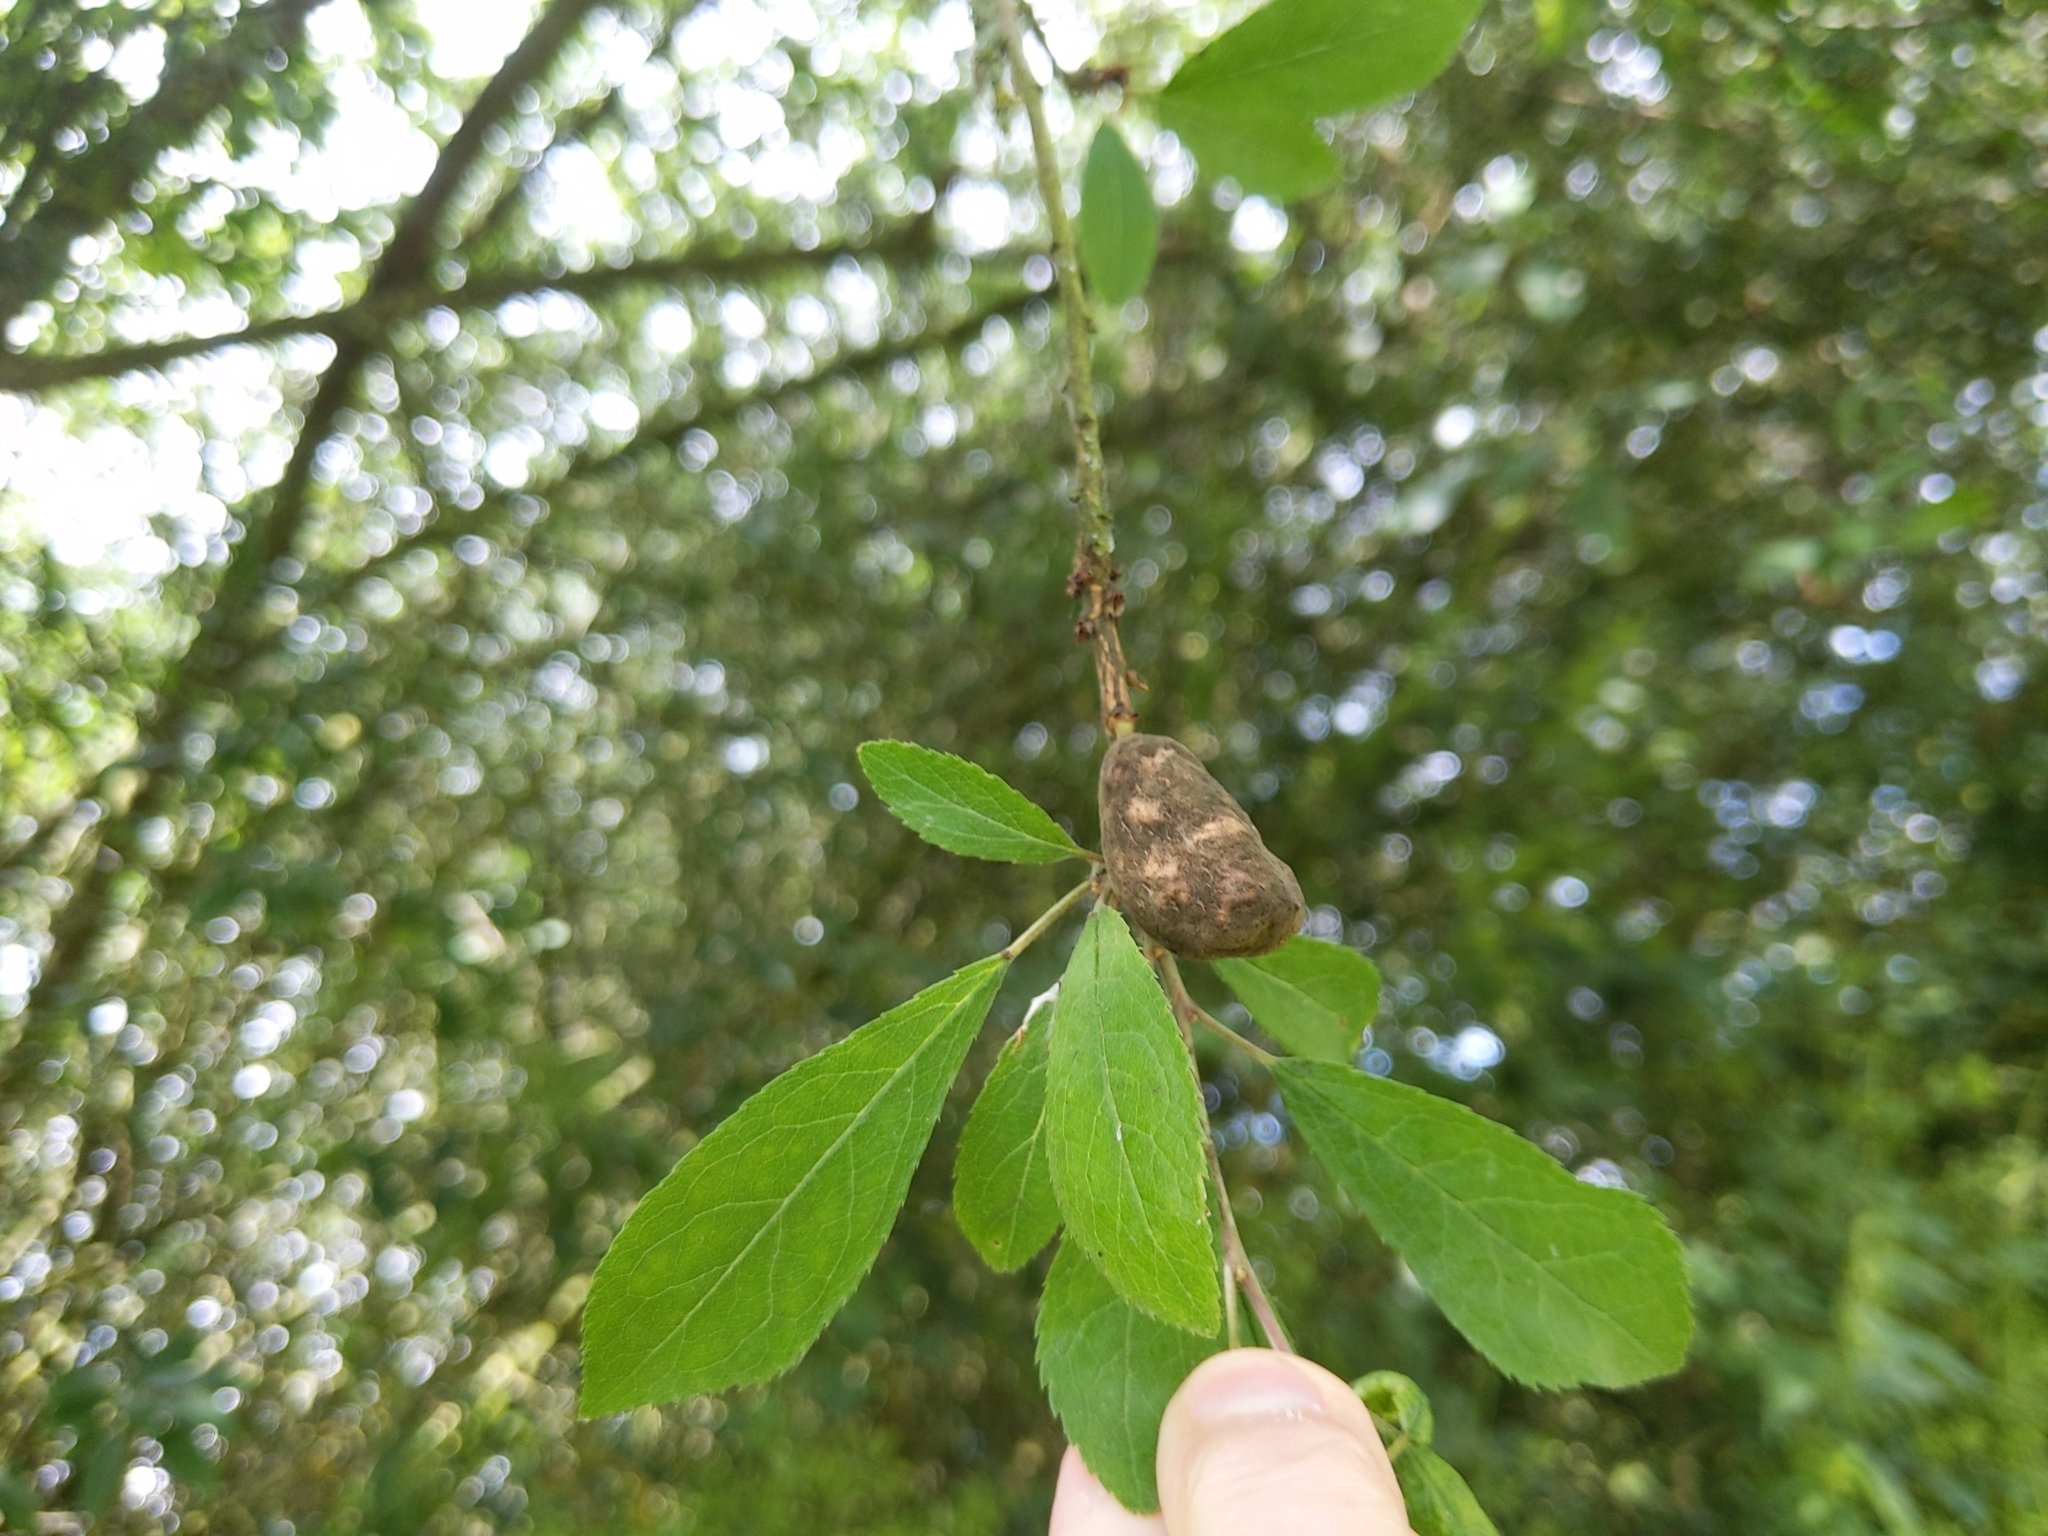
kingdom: Fungi
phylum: Ascomycota
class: Taphrinomycetes
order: Taphrinales
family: Taphrinaceae
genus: Taphrina
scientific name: Taphrina pruni
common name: Pocket plum
